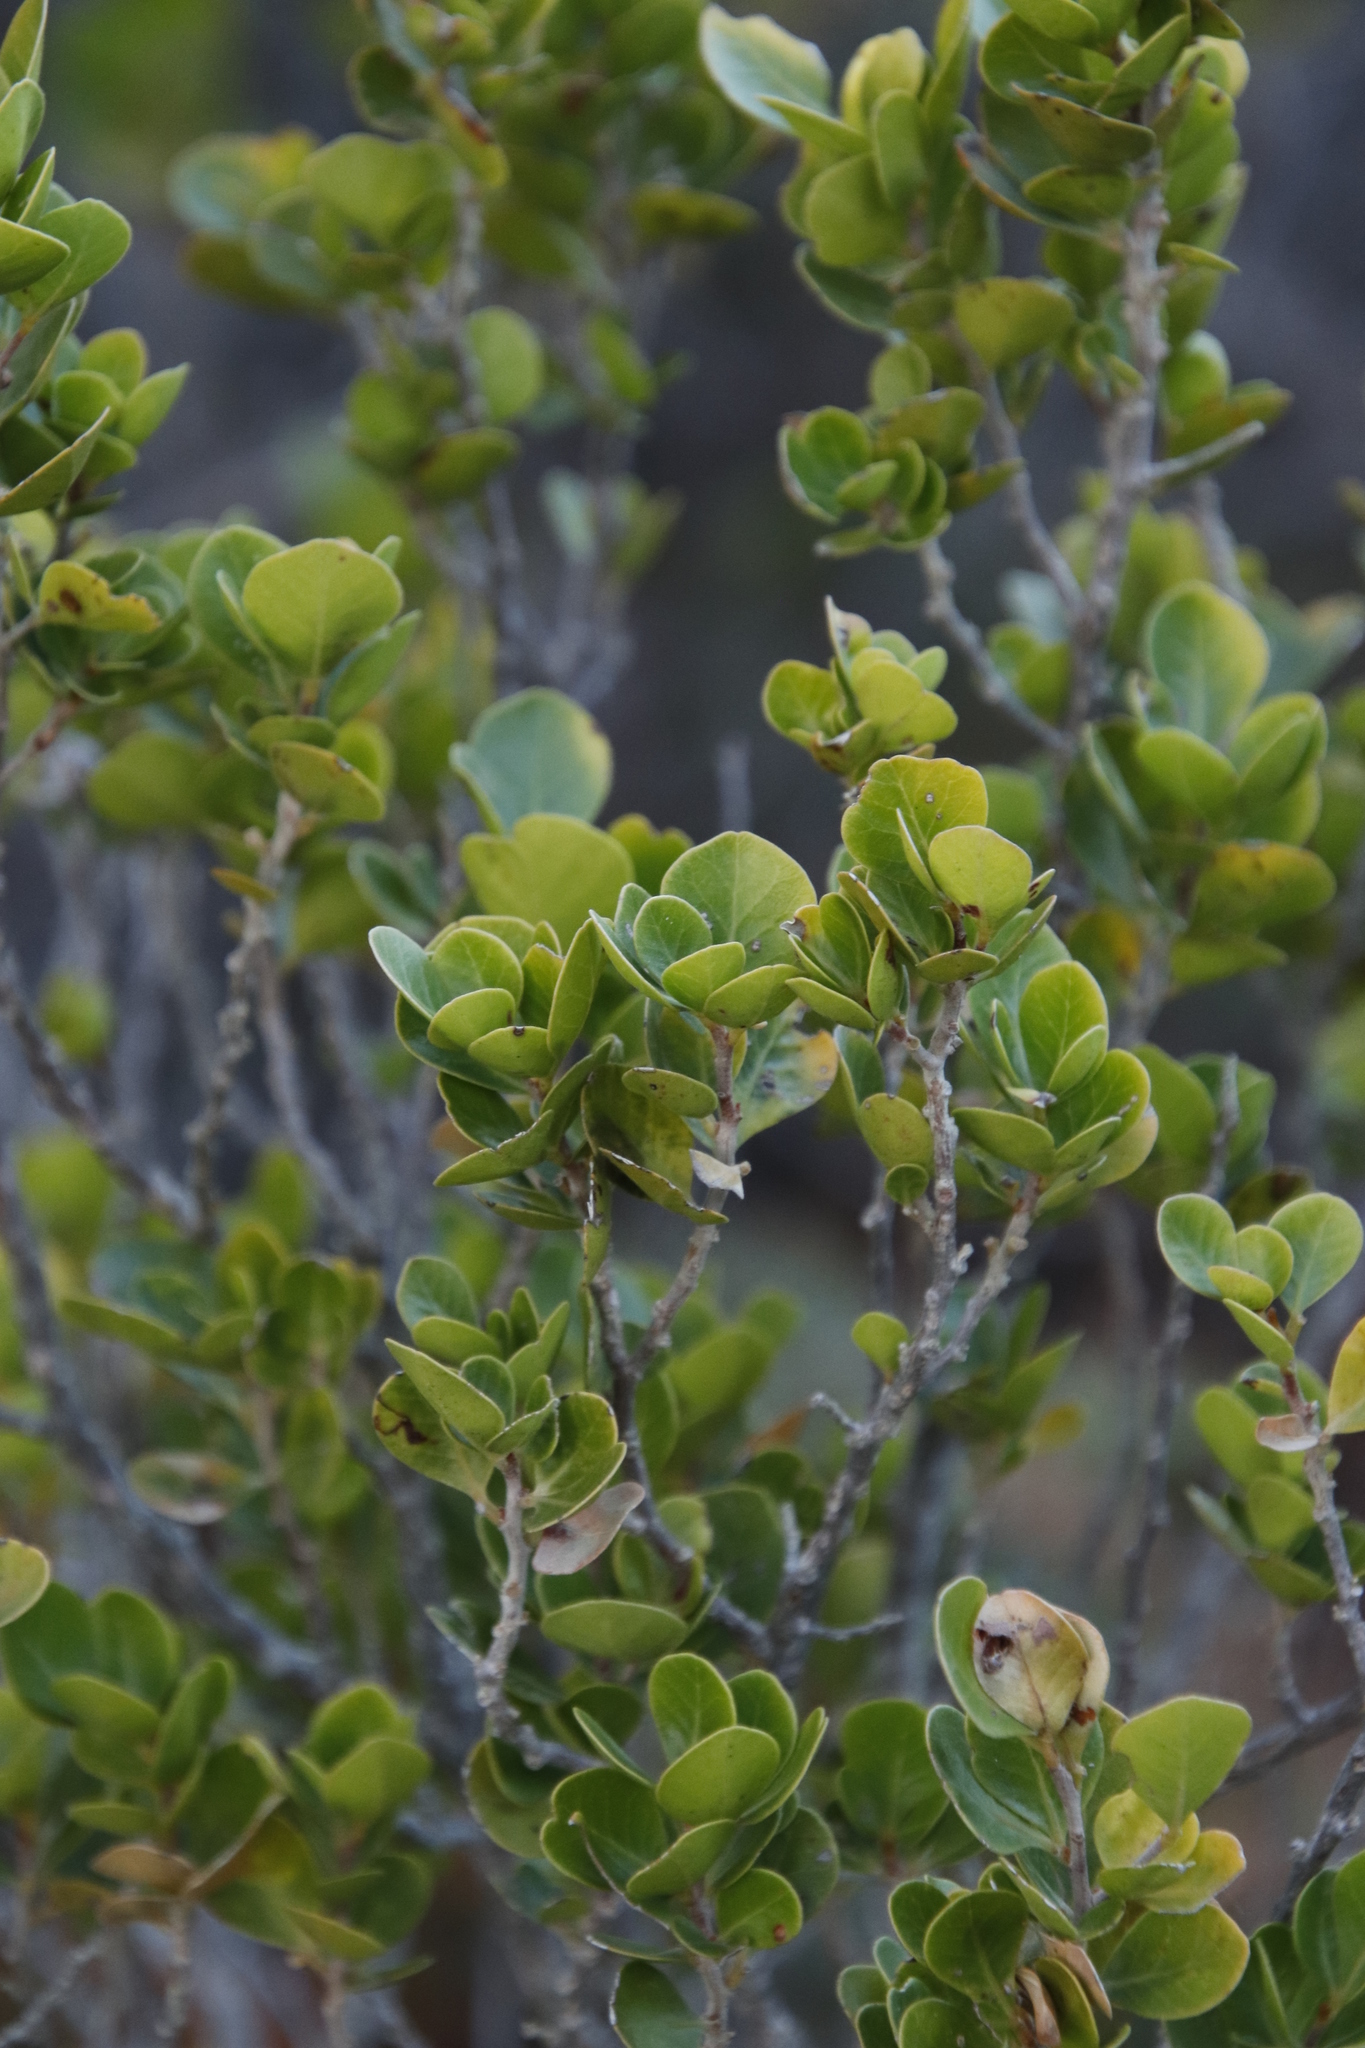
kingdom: Plantae
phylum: Tracheophyta
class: Magnoliopsida
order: Sapindales
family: Anacardiaceae
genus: Searsia
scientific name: Searsia lucida
